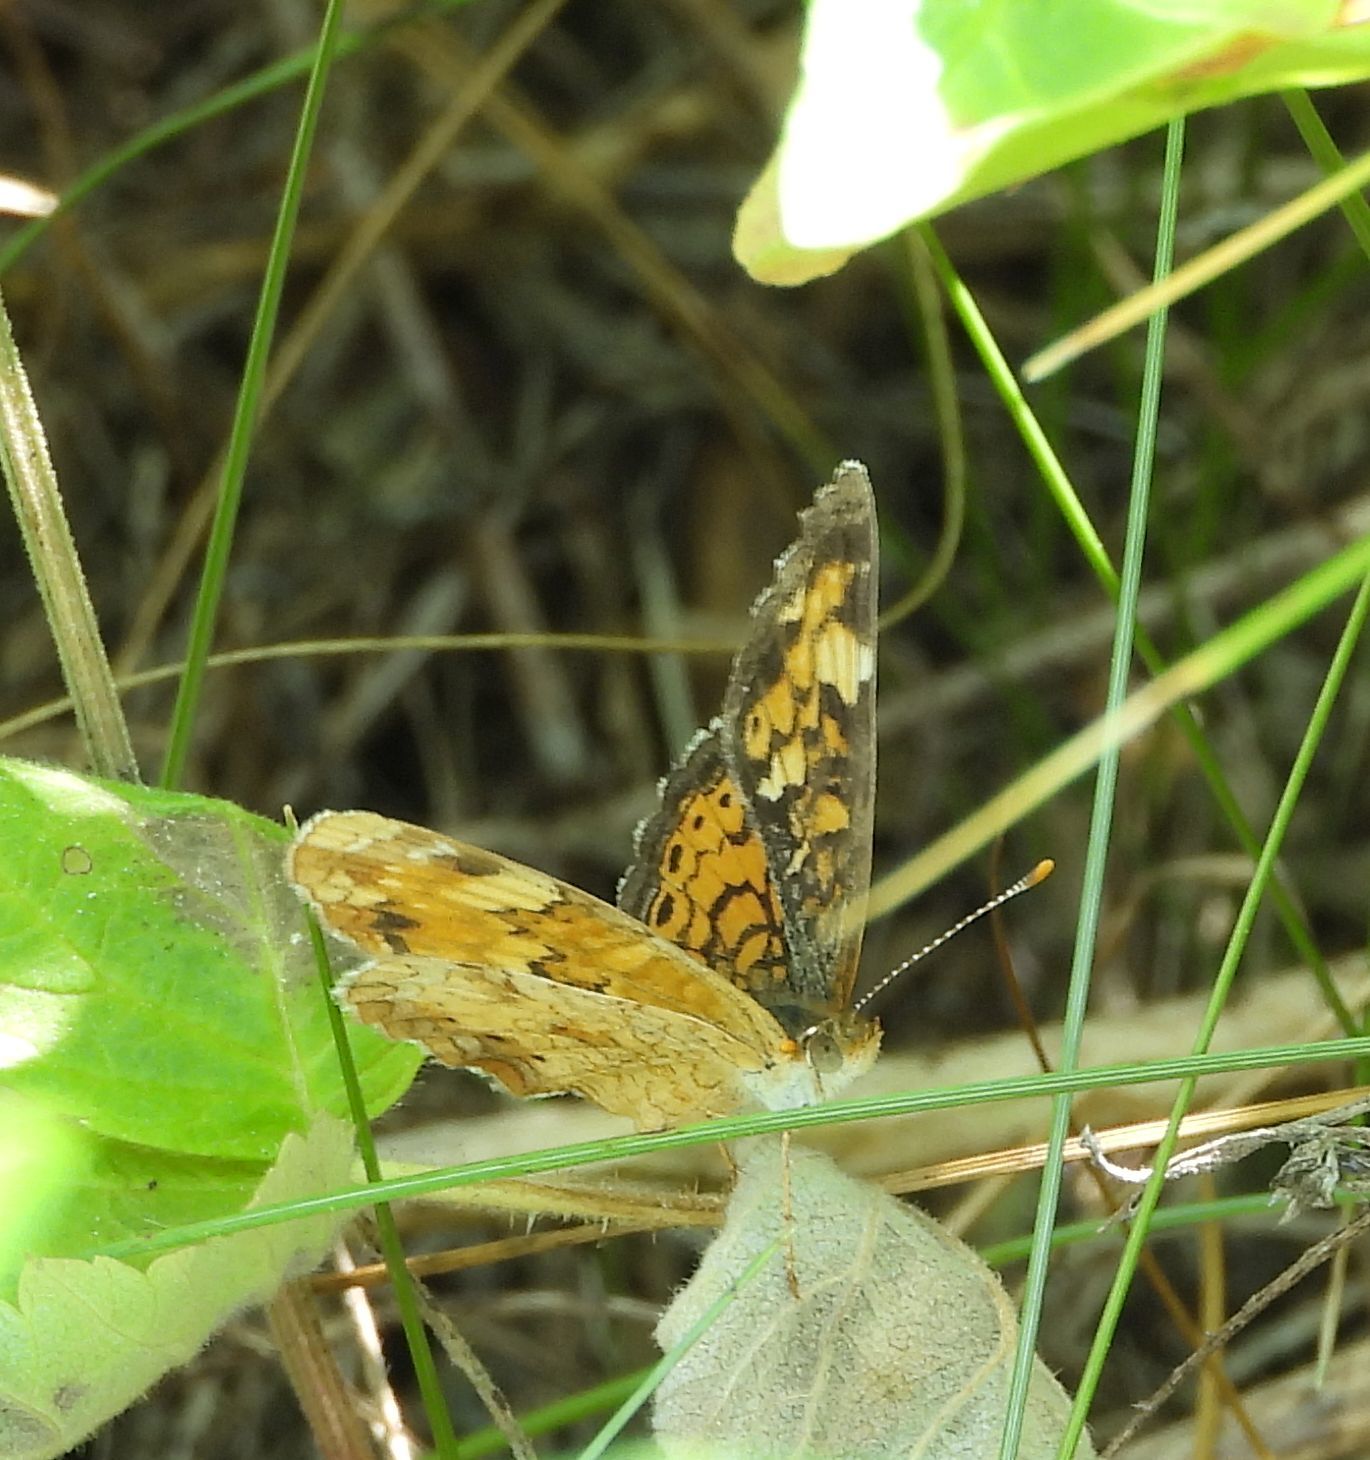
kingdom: Animalia
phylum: Arthropoda
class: Insecta
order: Lepidoptera
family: Nymphalidae
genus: Phyciodes
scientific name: Phyciodes tharos
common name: Pearl crescent
